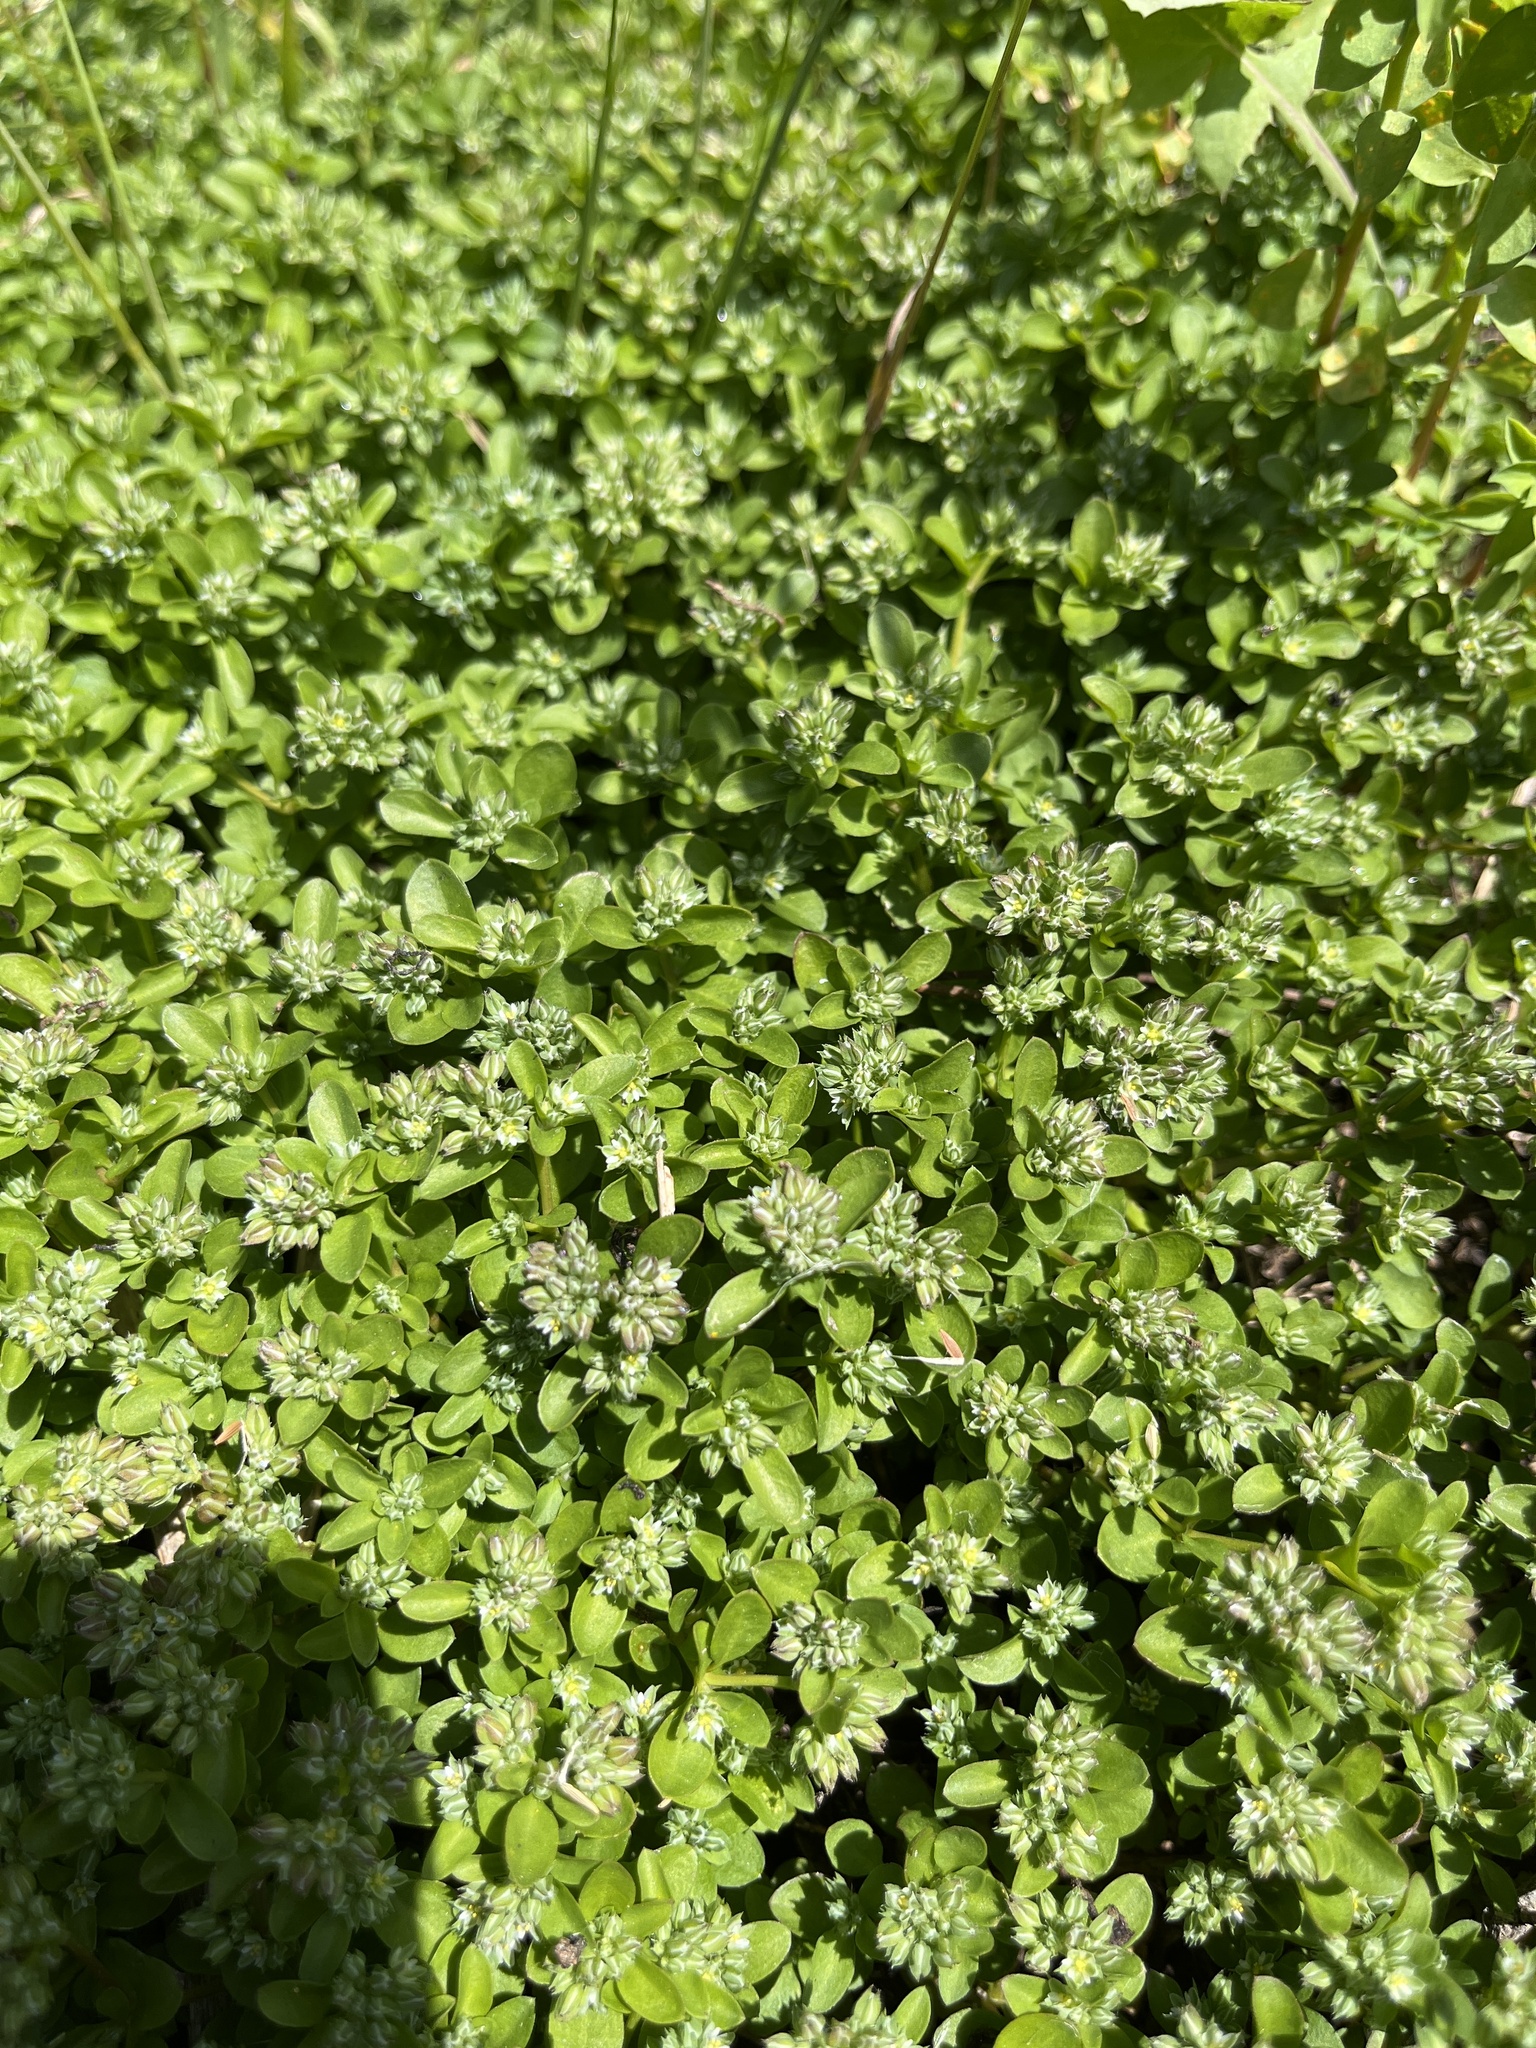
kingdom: Plantae
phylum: Tracheophyta
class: Magnoliopsida
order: Caryophyllales
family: Caryophyllaceae
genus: Polycarpon
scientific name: Polycarpon tetraphyllum
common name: Four-leaved all-seed
